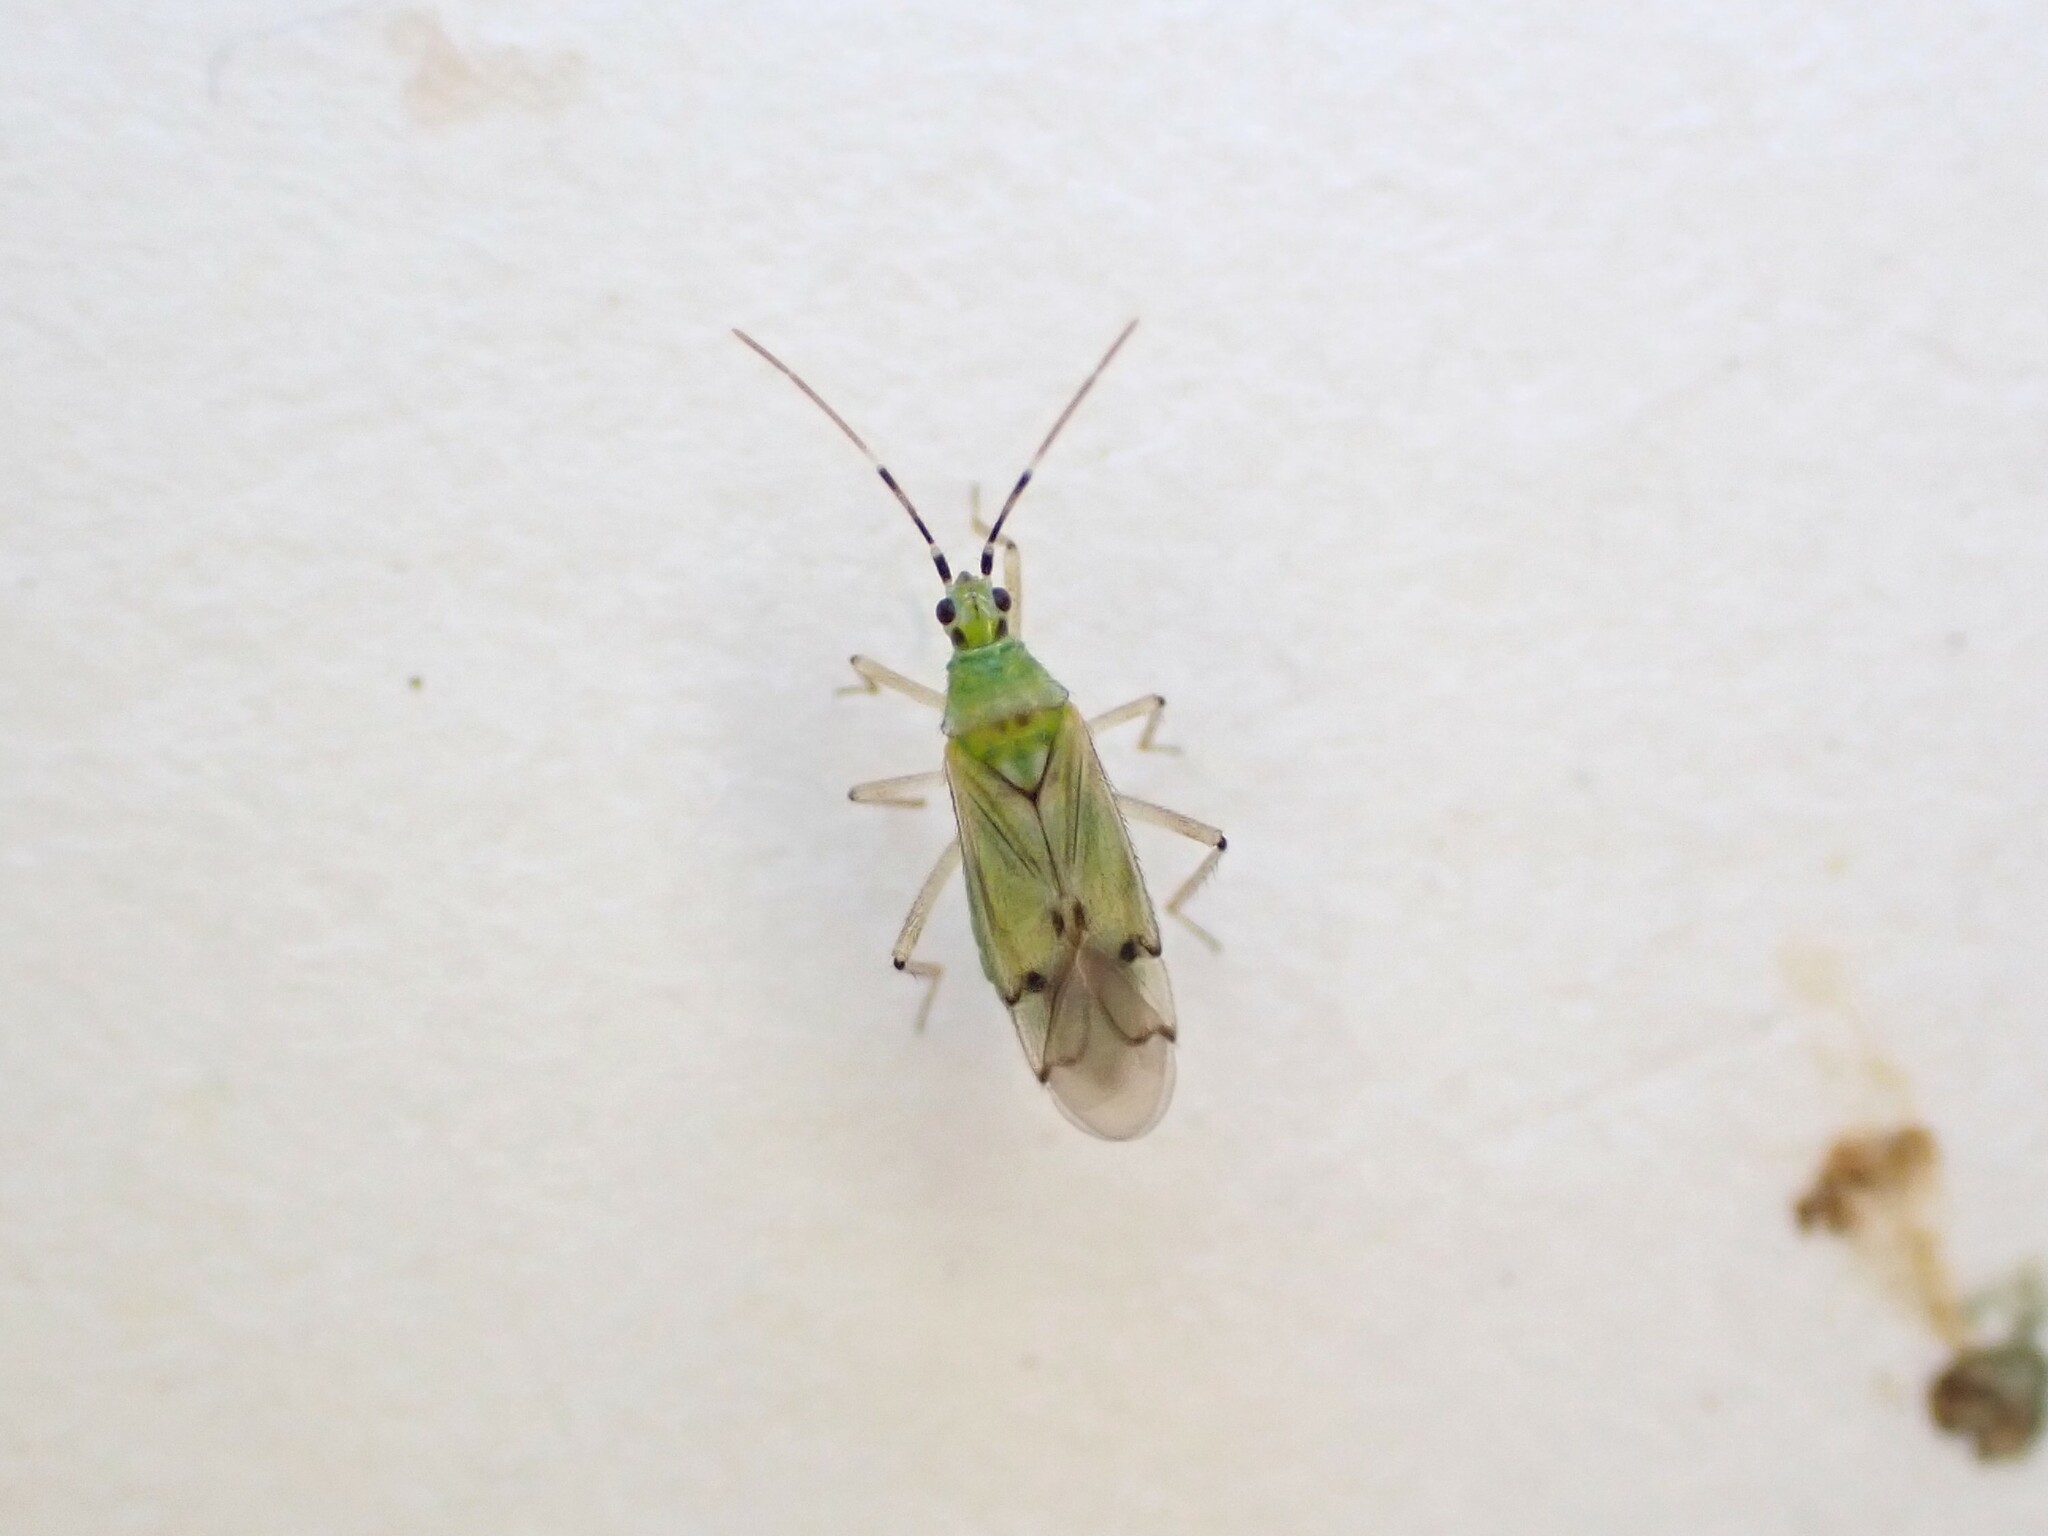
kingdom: Animalia
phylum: Arthropoda
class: Insecta
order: Hemiptera
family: Miridae
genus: Engytatus
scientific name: Engytatus nicotianae
